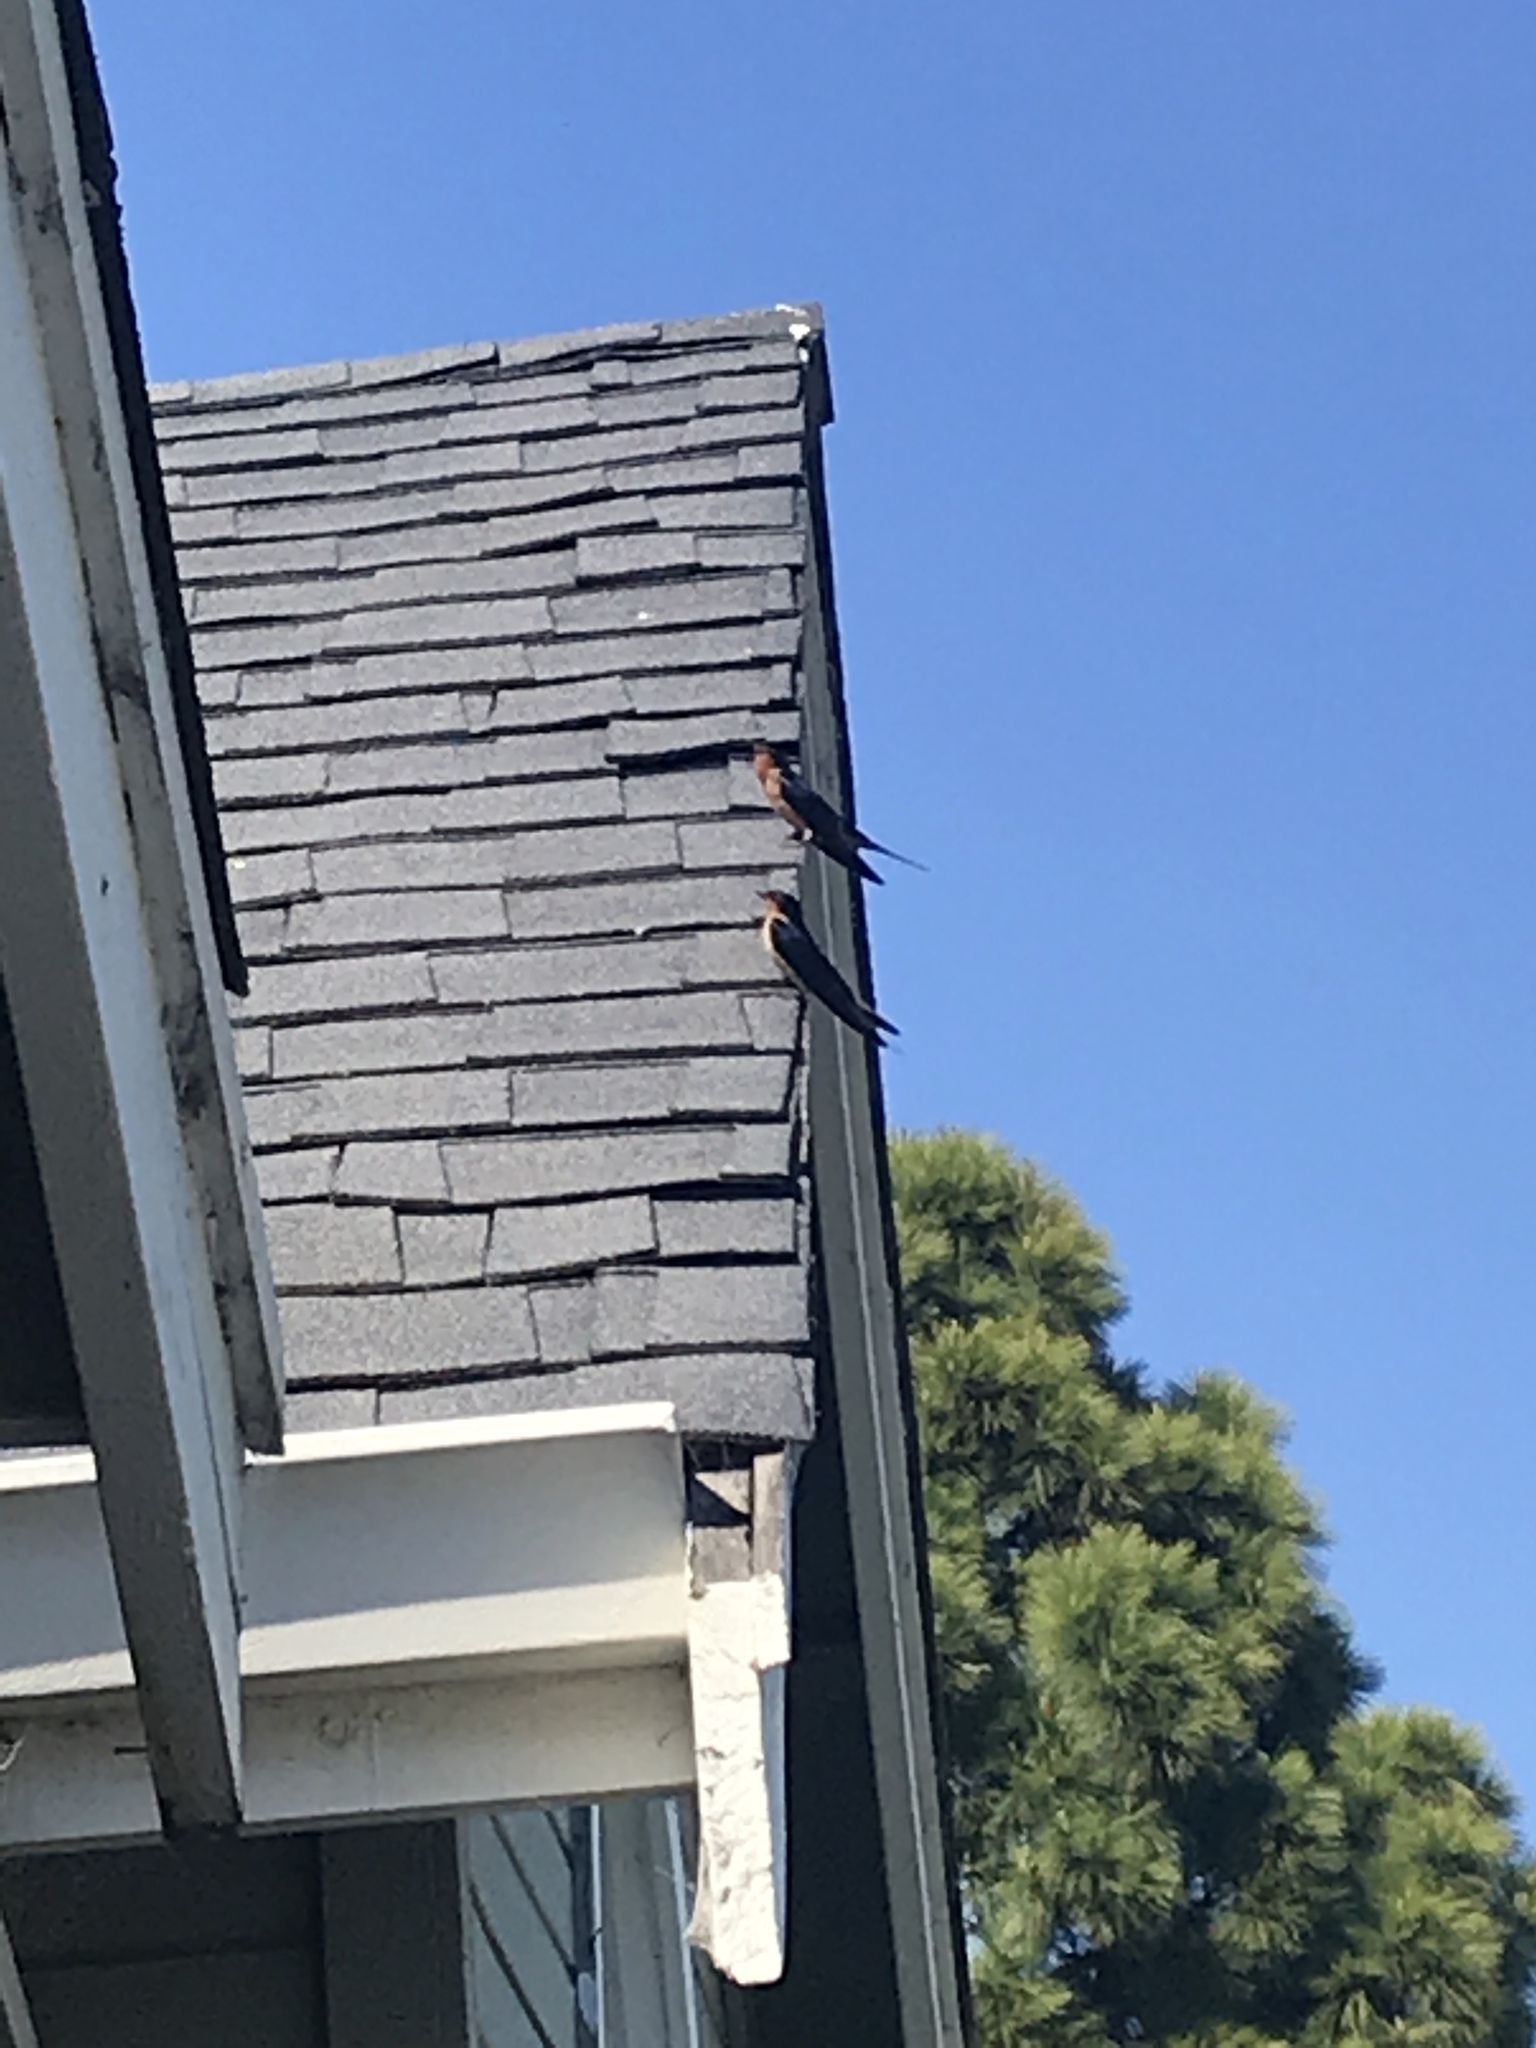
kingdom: Animalia
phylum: Chordata
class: Aves
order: Passeriformes
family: Hirundinidae
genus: Hirundo
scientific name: Hirundo rustica
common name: Barn swallow
